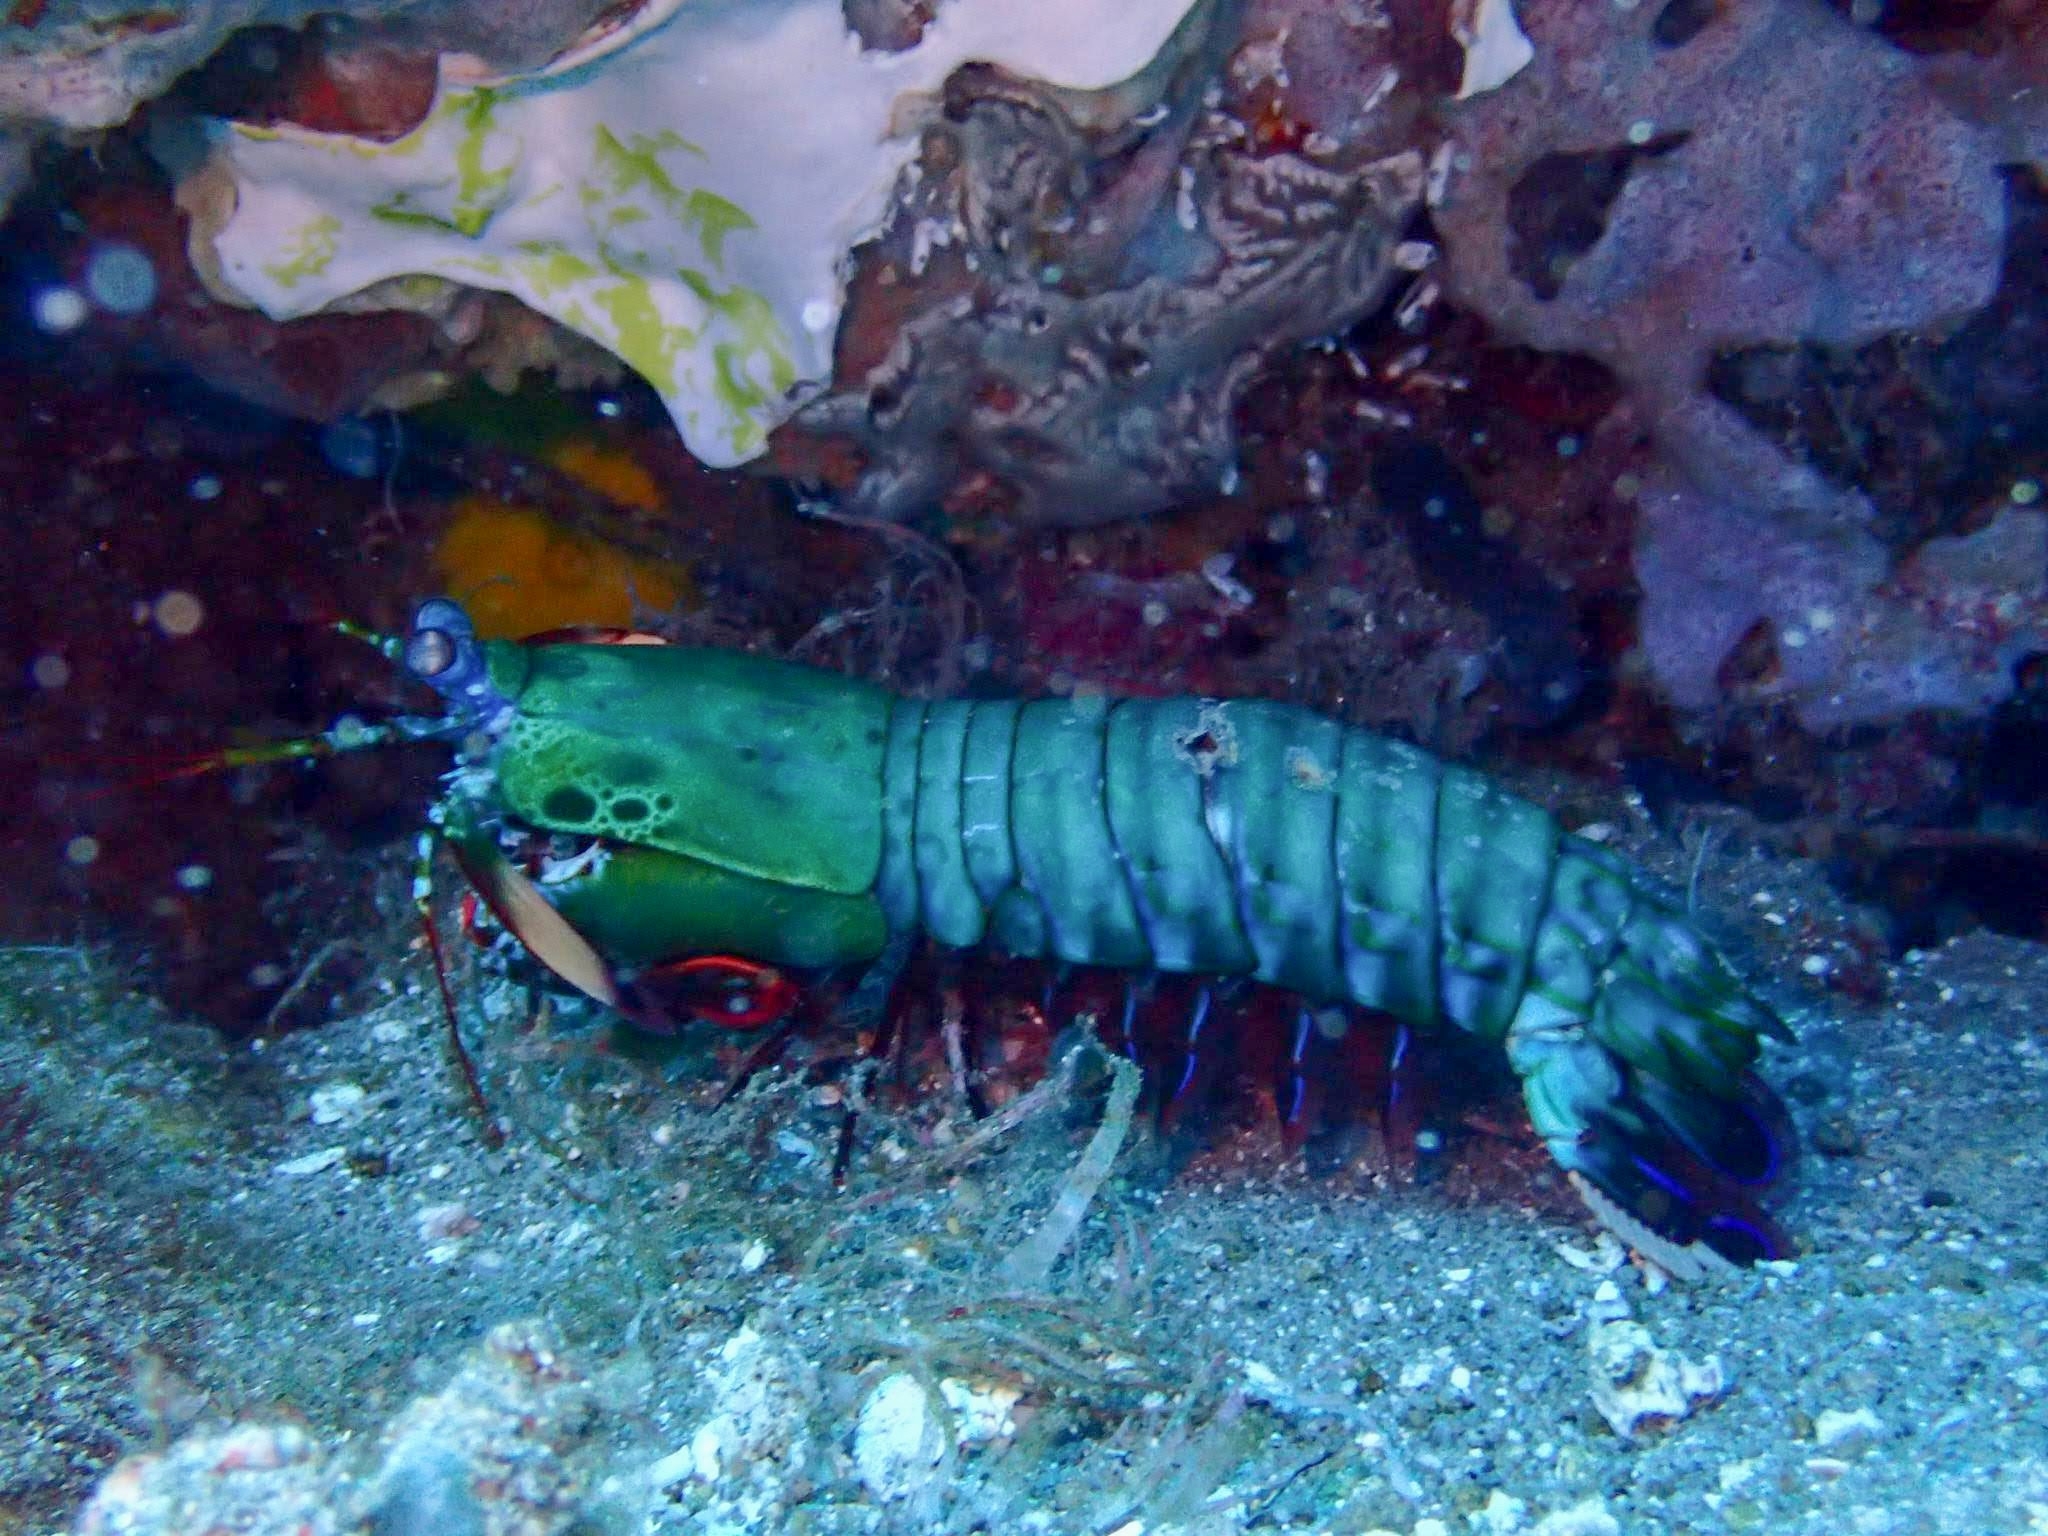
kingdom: Animalia
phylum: Arthropoda
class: Malacostraca
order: Stomatopoda
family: Odontodactylidae
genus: Odontodactylus
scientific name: Odontodactylus scyllarus
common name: Peacock mantis shrimp
